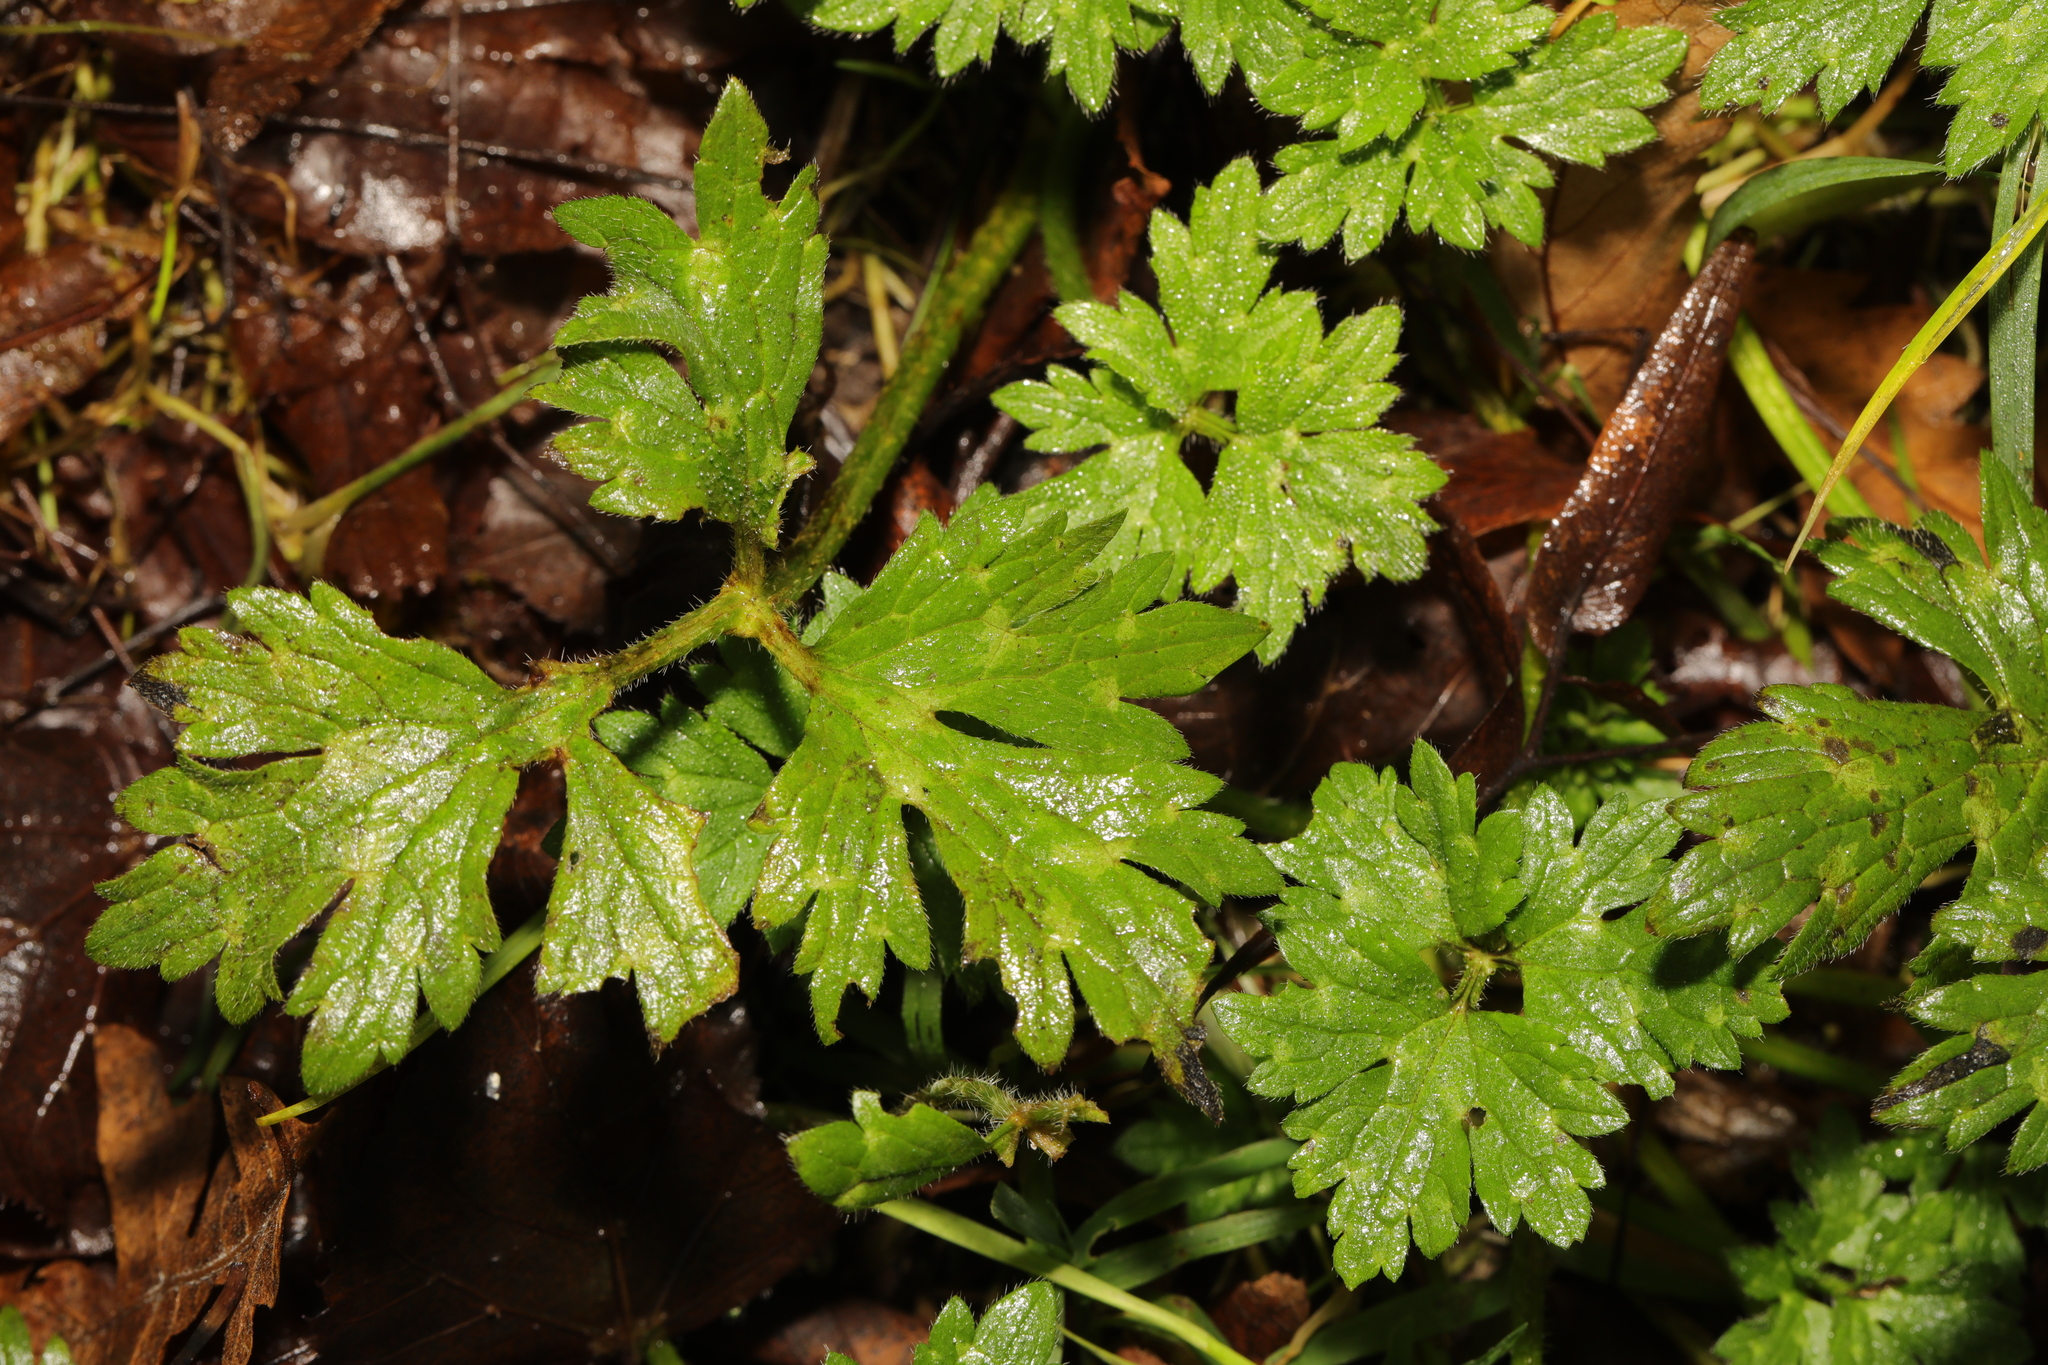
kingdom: Plantae
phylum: Tracheophyta
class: Magnoliopsida
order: Ranunculales
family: Ranunculaceae
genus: Ranunculus
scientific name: Ranunculus repens
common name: Creeping buttercup
